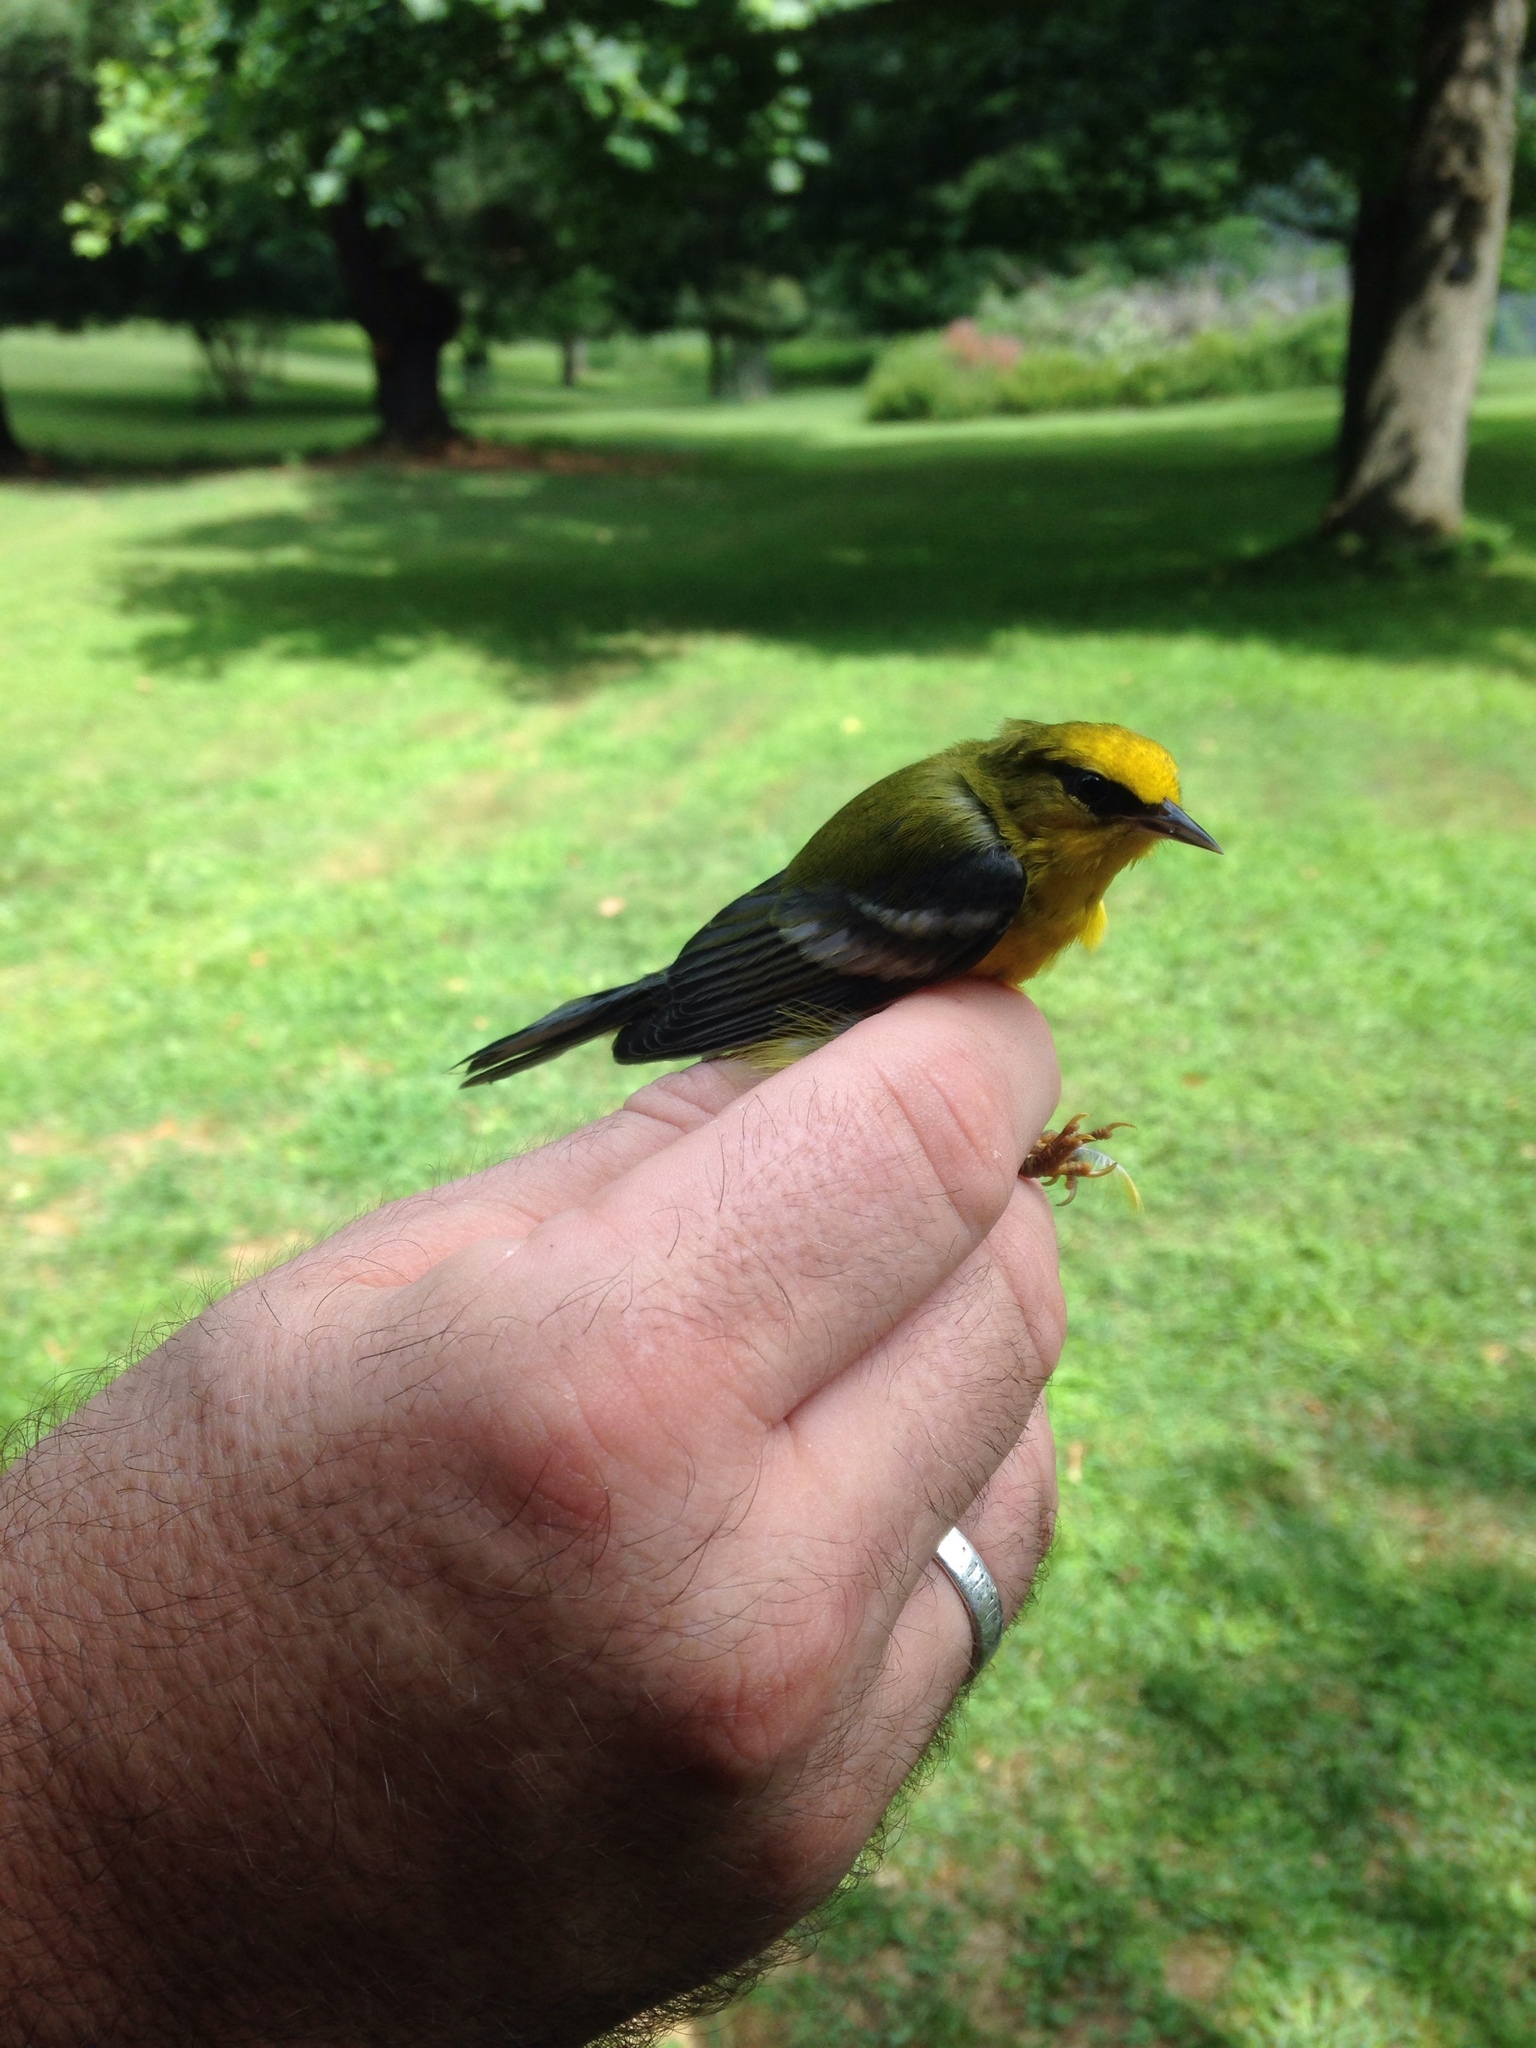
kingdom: Animalia
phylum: Chordata
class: Aves
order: Passeriformes
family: Parulidae
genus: Vermivora
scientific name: Vermivora cyanoptera
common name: Blue-winged warbler
